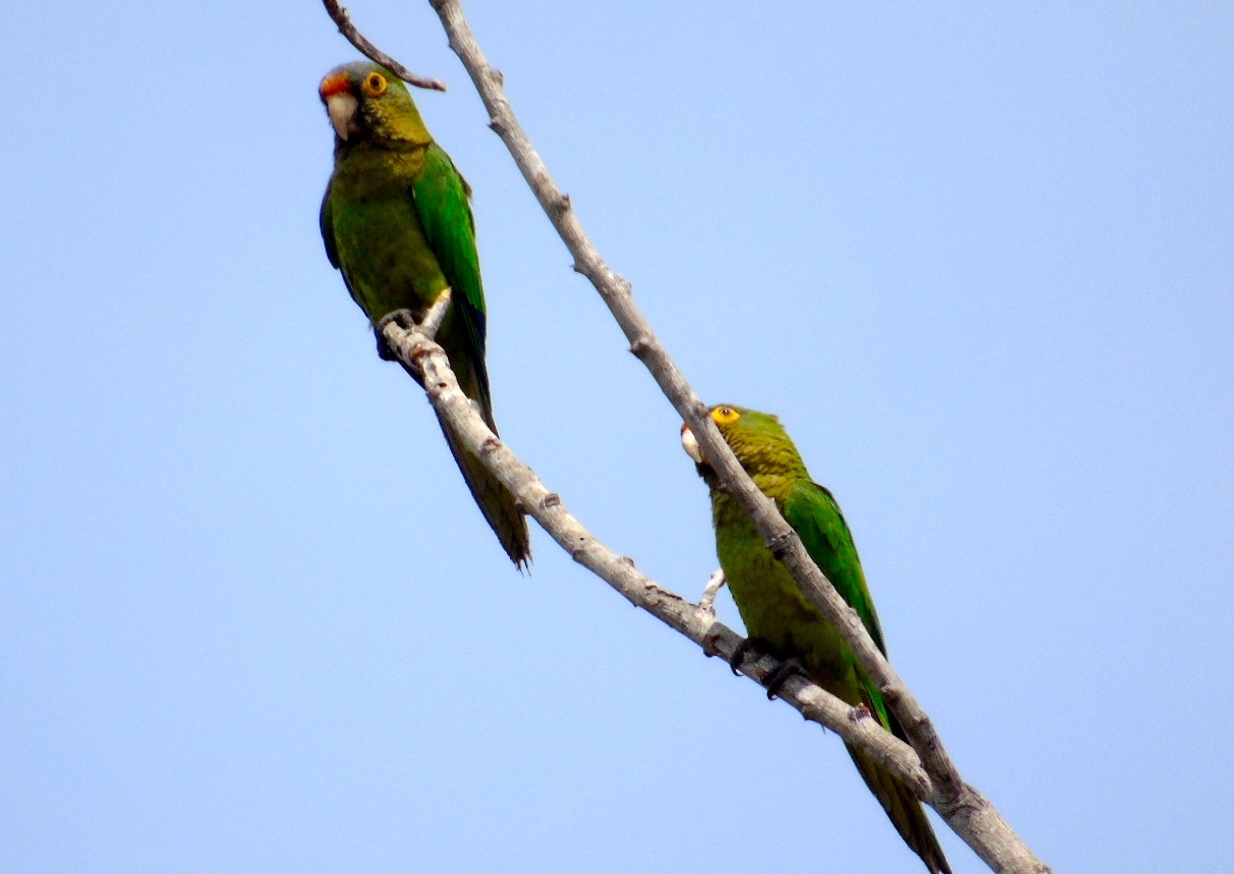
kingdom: Animalia
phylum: Chordata
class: Aves
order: Psittaciformes
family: Psittacidae
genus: Aratinga
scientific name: Aratinga canicularis
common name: Orange-fronted parakeet
